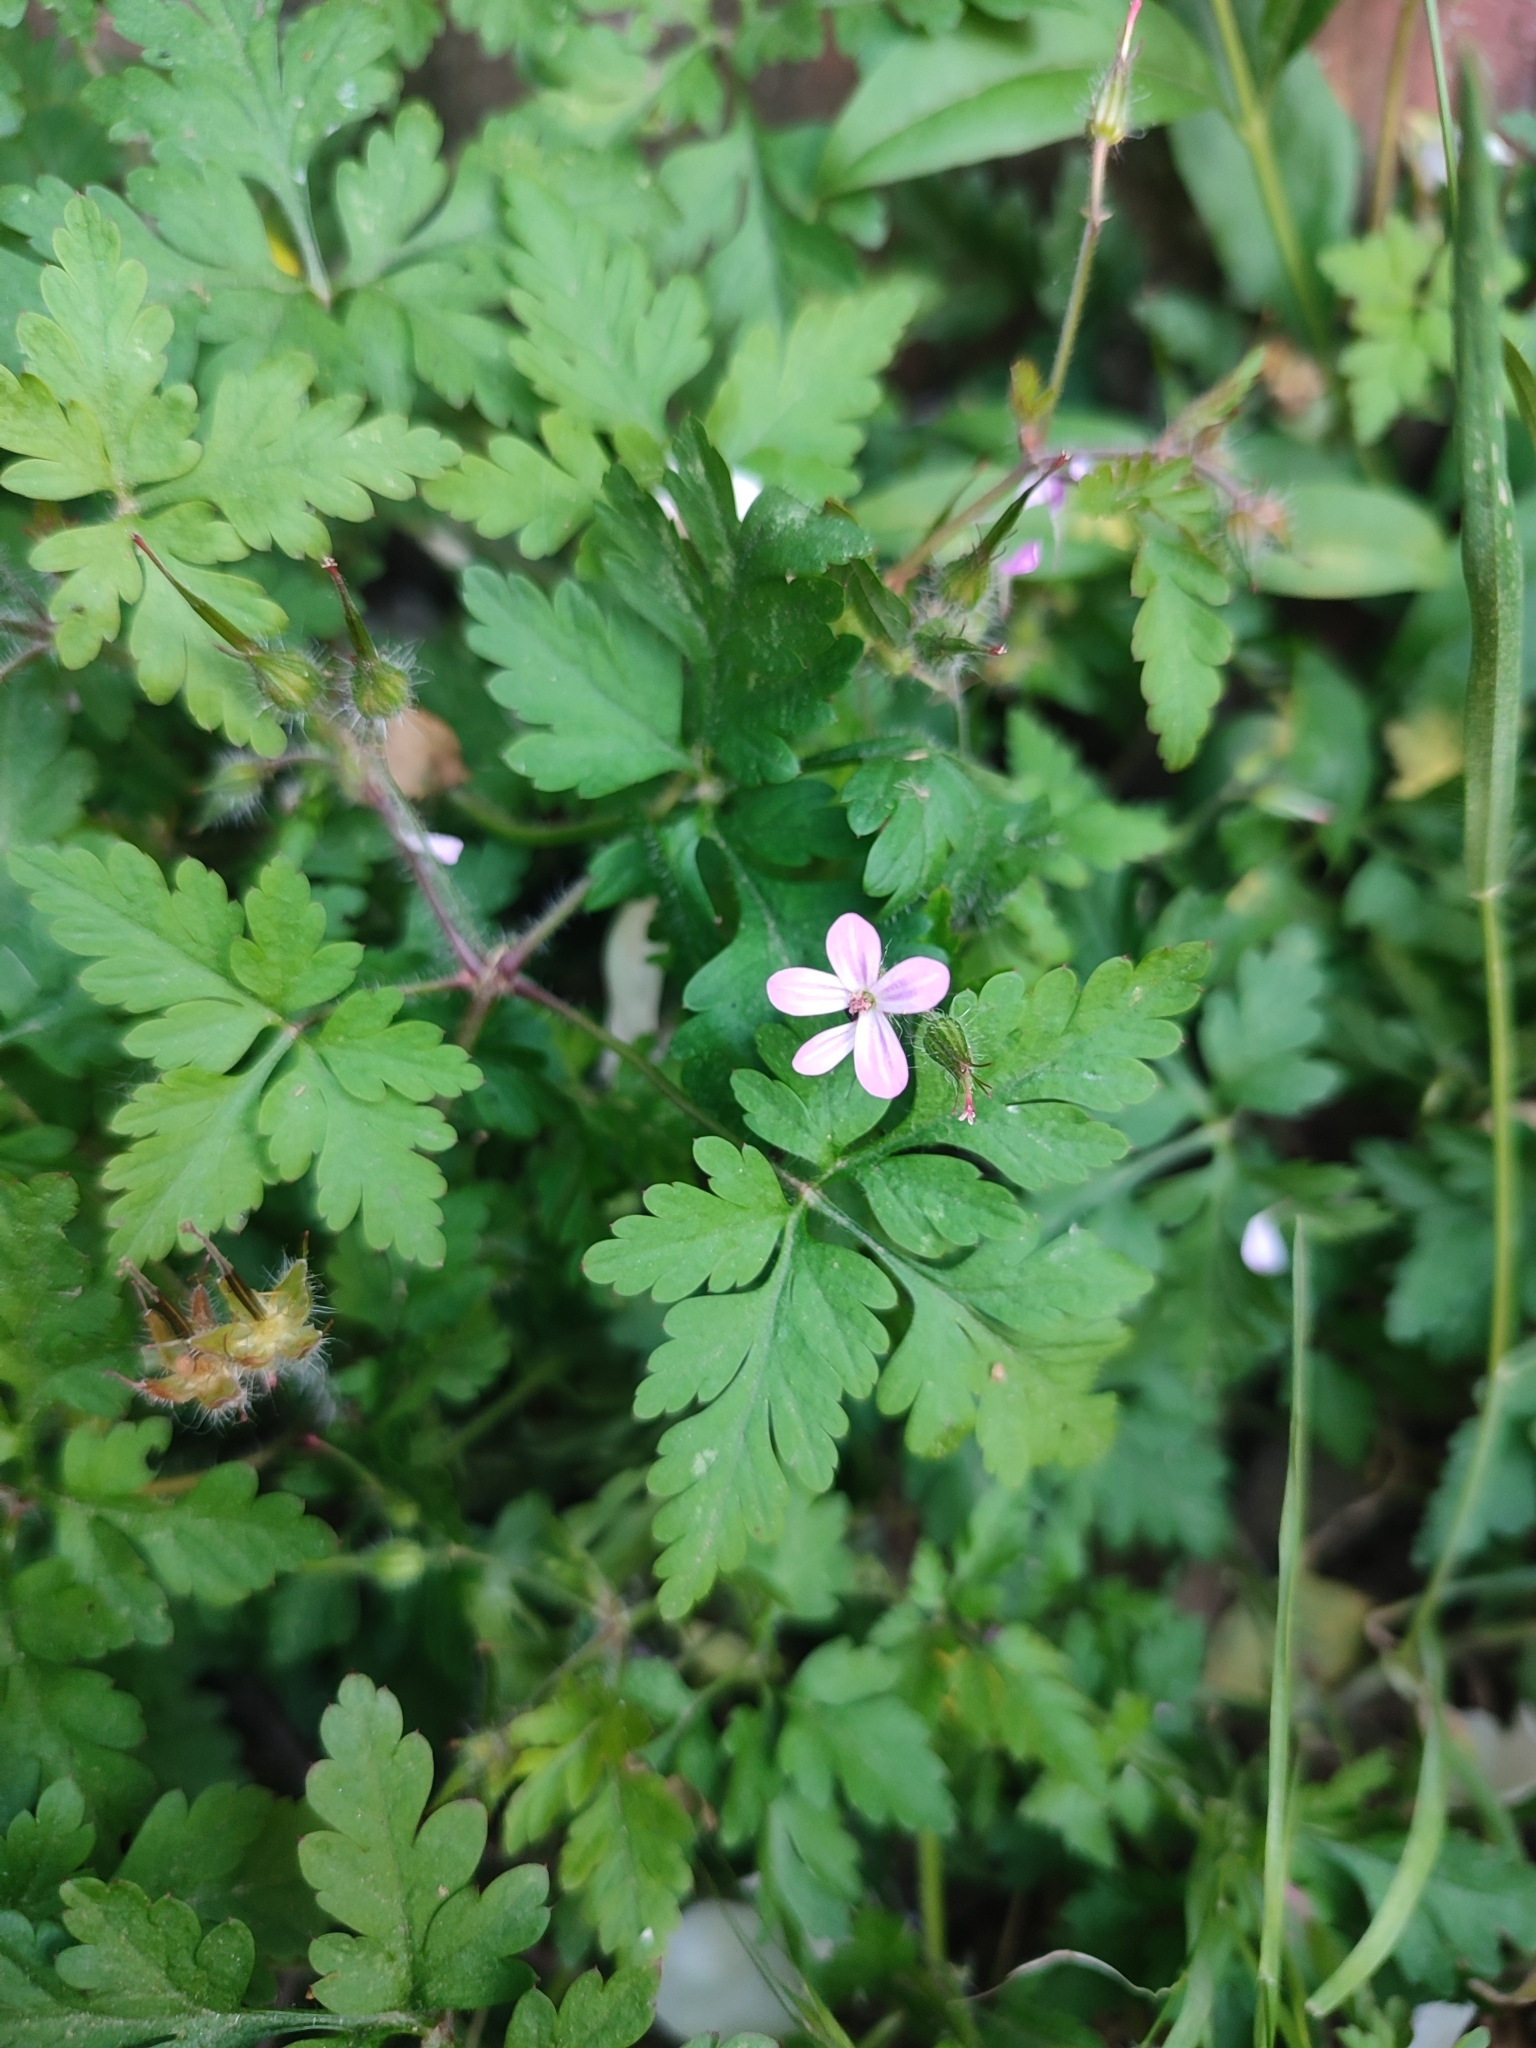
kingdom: Plantae
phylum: Tracheophyta
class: Magnoliopsida
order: Geraniales
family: Geraniaceae
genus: Geranium
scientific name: Geranium robertianum
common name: Herb-robert
